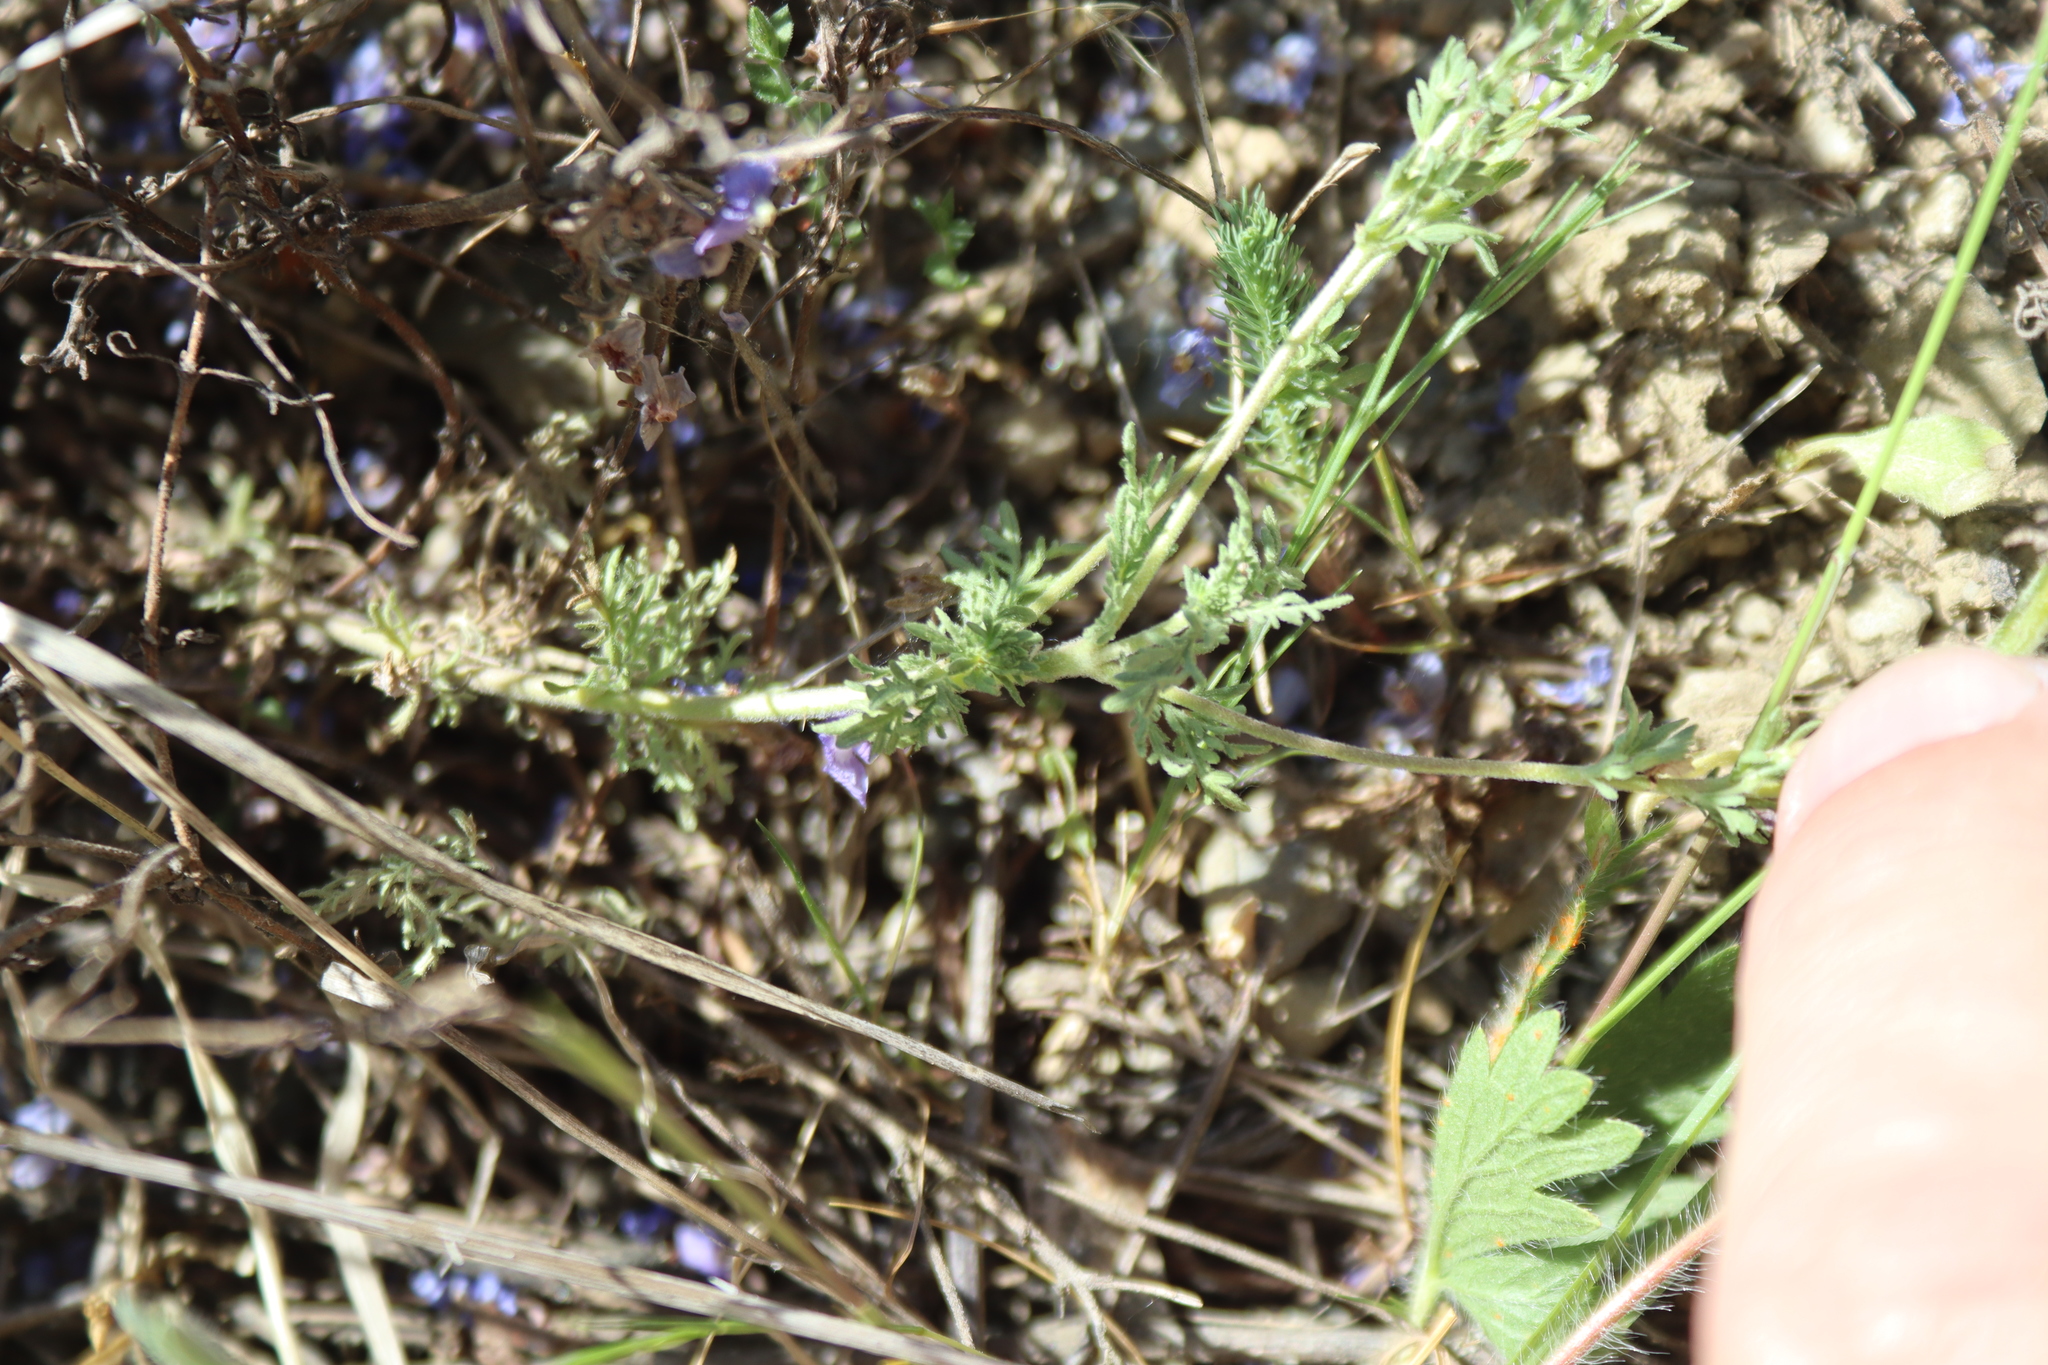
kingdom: Plantae
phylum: Tracheophyta
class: Magnoliopsida
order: Lamiales
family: Plantaginaceae
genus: Veronica
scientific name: Veronica multifida
